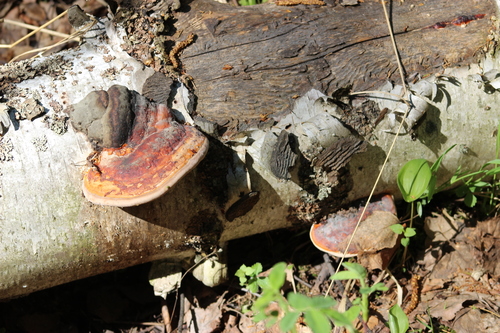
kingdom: Fungi
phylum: Basidiomycota
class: Agaricomycetes
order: Polyporales
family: Fomitopsidaceae
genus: Fomitopsis
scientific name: Fomitopsis pinicola
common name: Red-belted bracket
